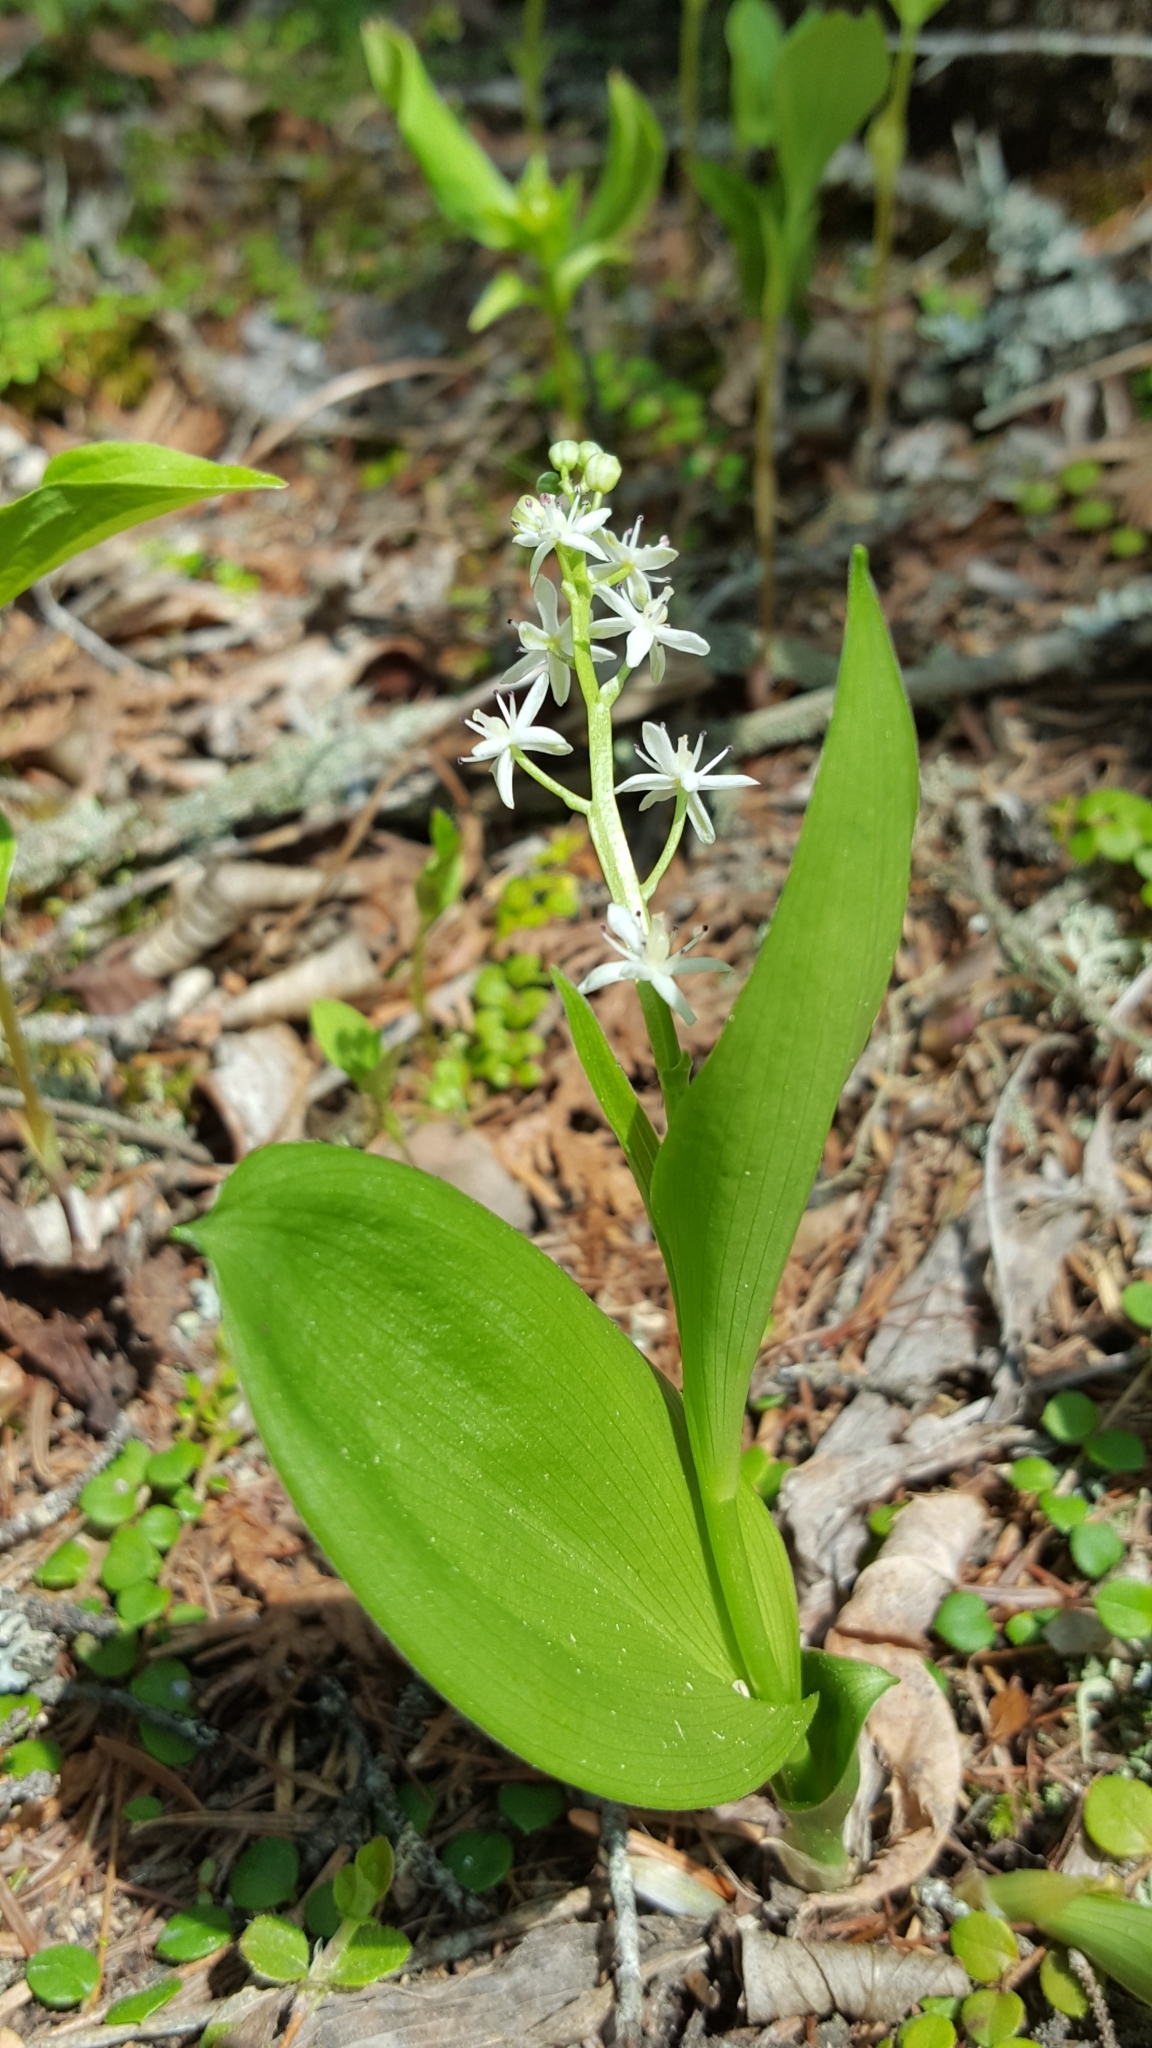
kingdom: Plantae
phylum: Tracheophyta
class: Liliopsida
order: Asparagales
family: Asparagaceae
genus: Maianthemum
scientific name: Maianthemum trifolium
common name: Swamp false solomon's seal
